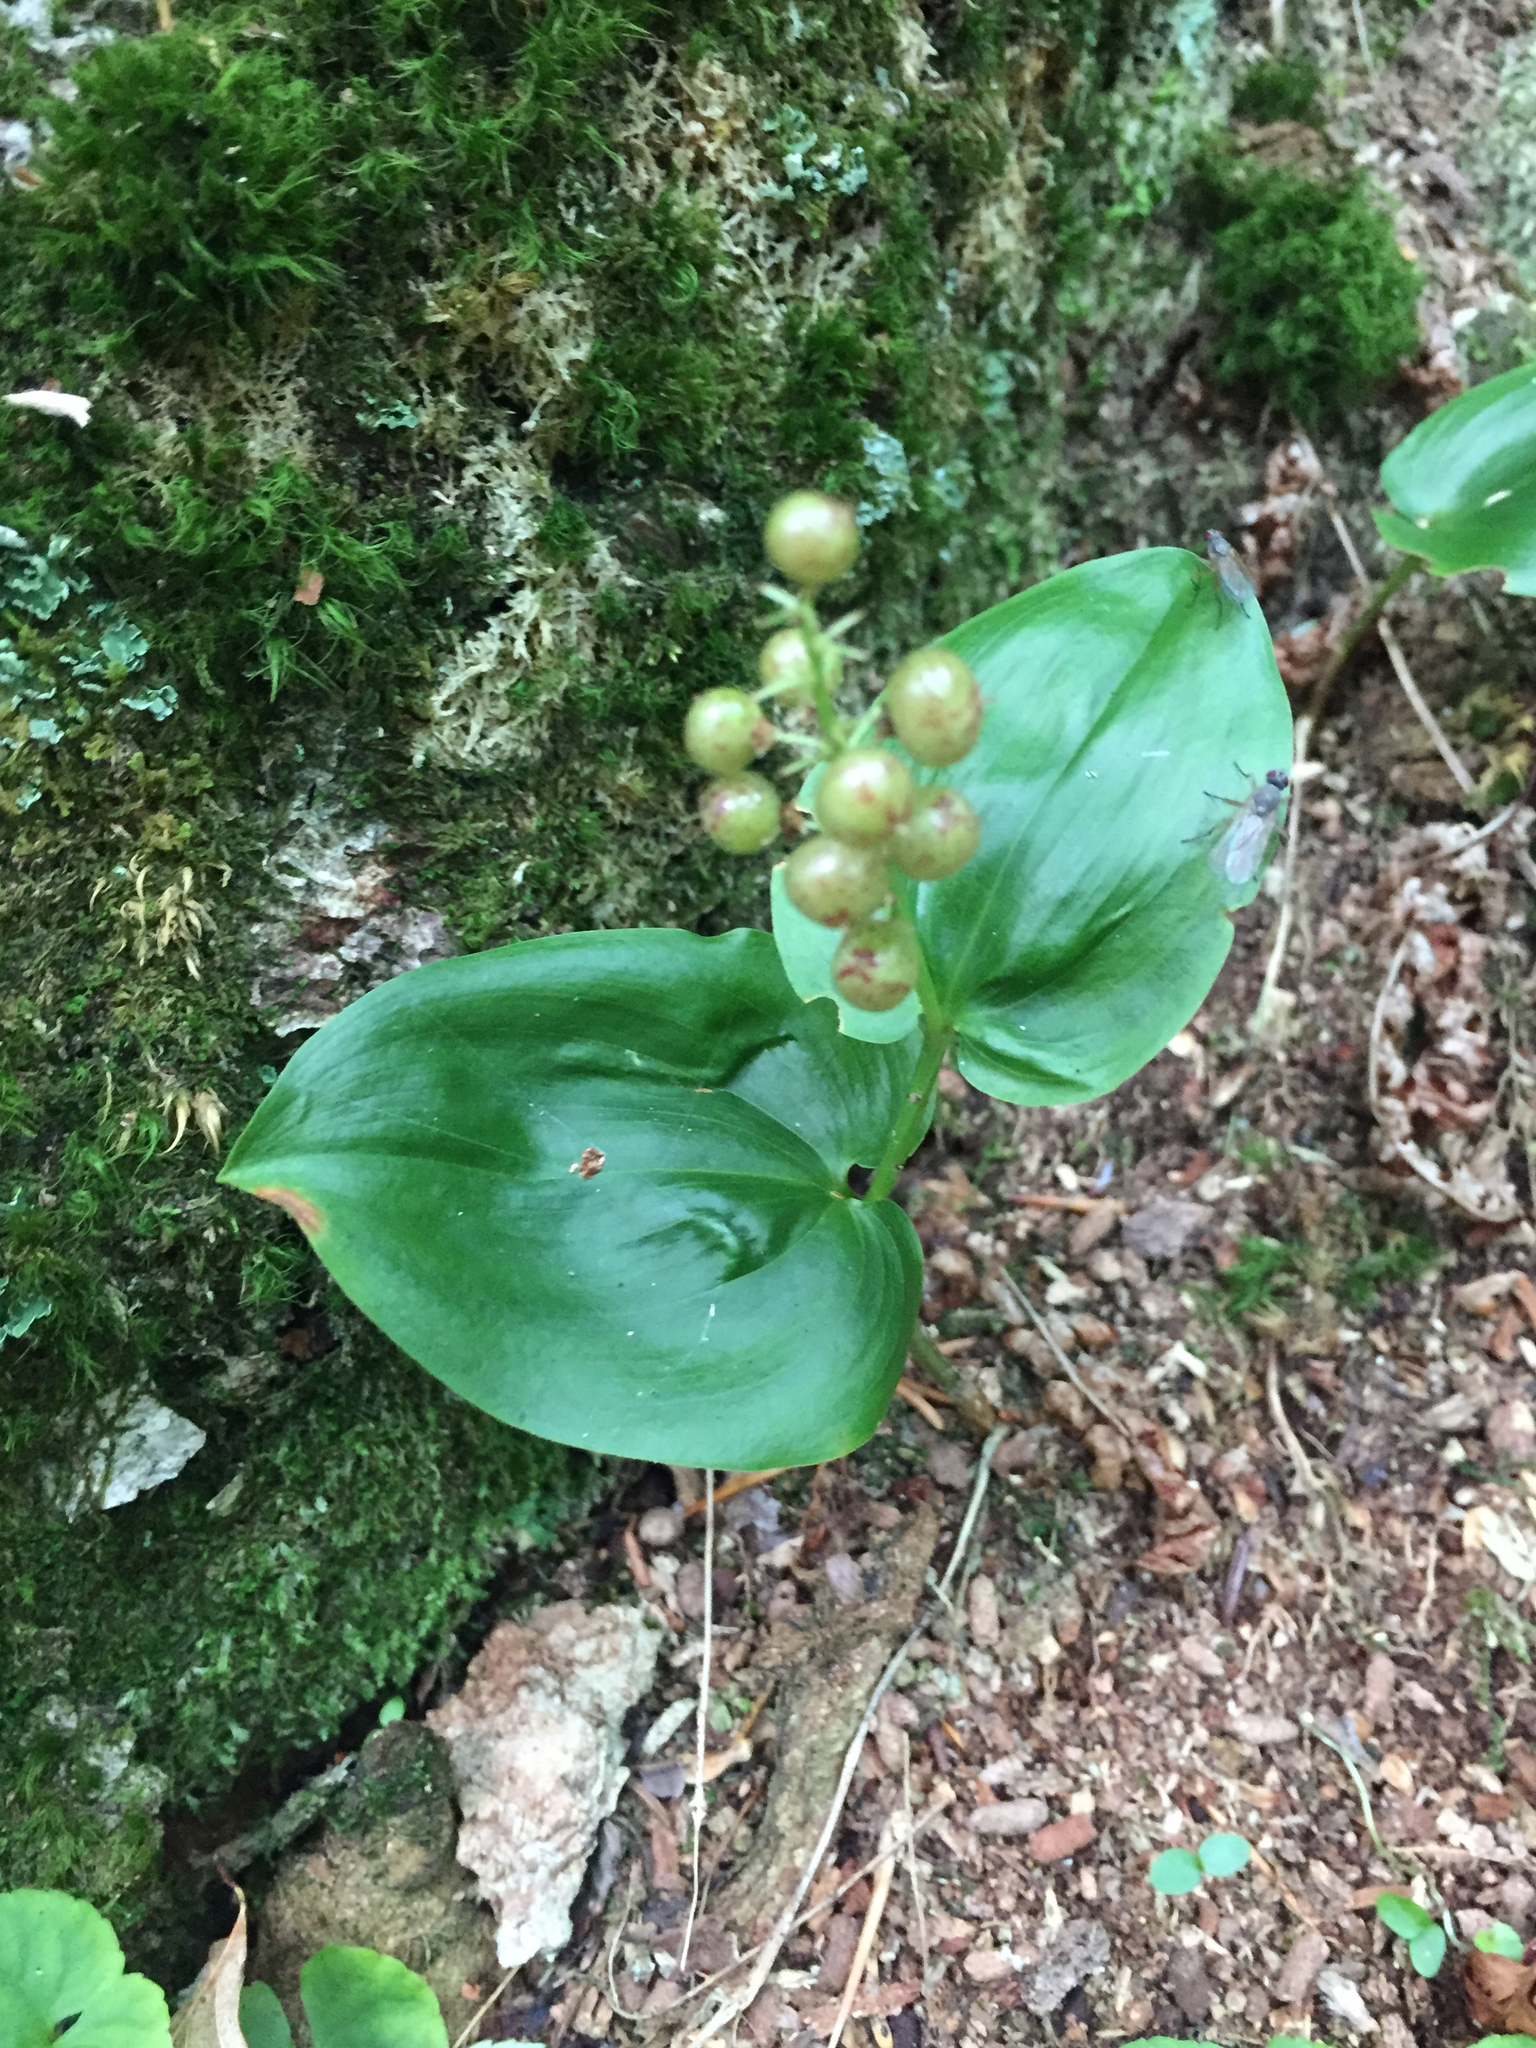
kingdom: Plantae
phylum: Tracheophyta
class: Liliopsida
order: Asparagales
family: Asparagaceae
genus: Maianthemum
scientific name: Maianthemum canadense
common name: False lily-of-the-valley
